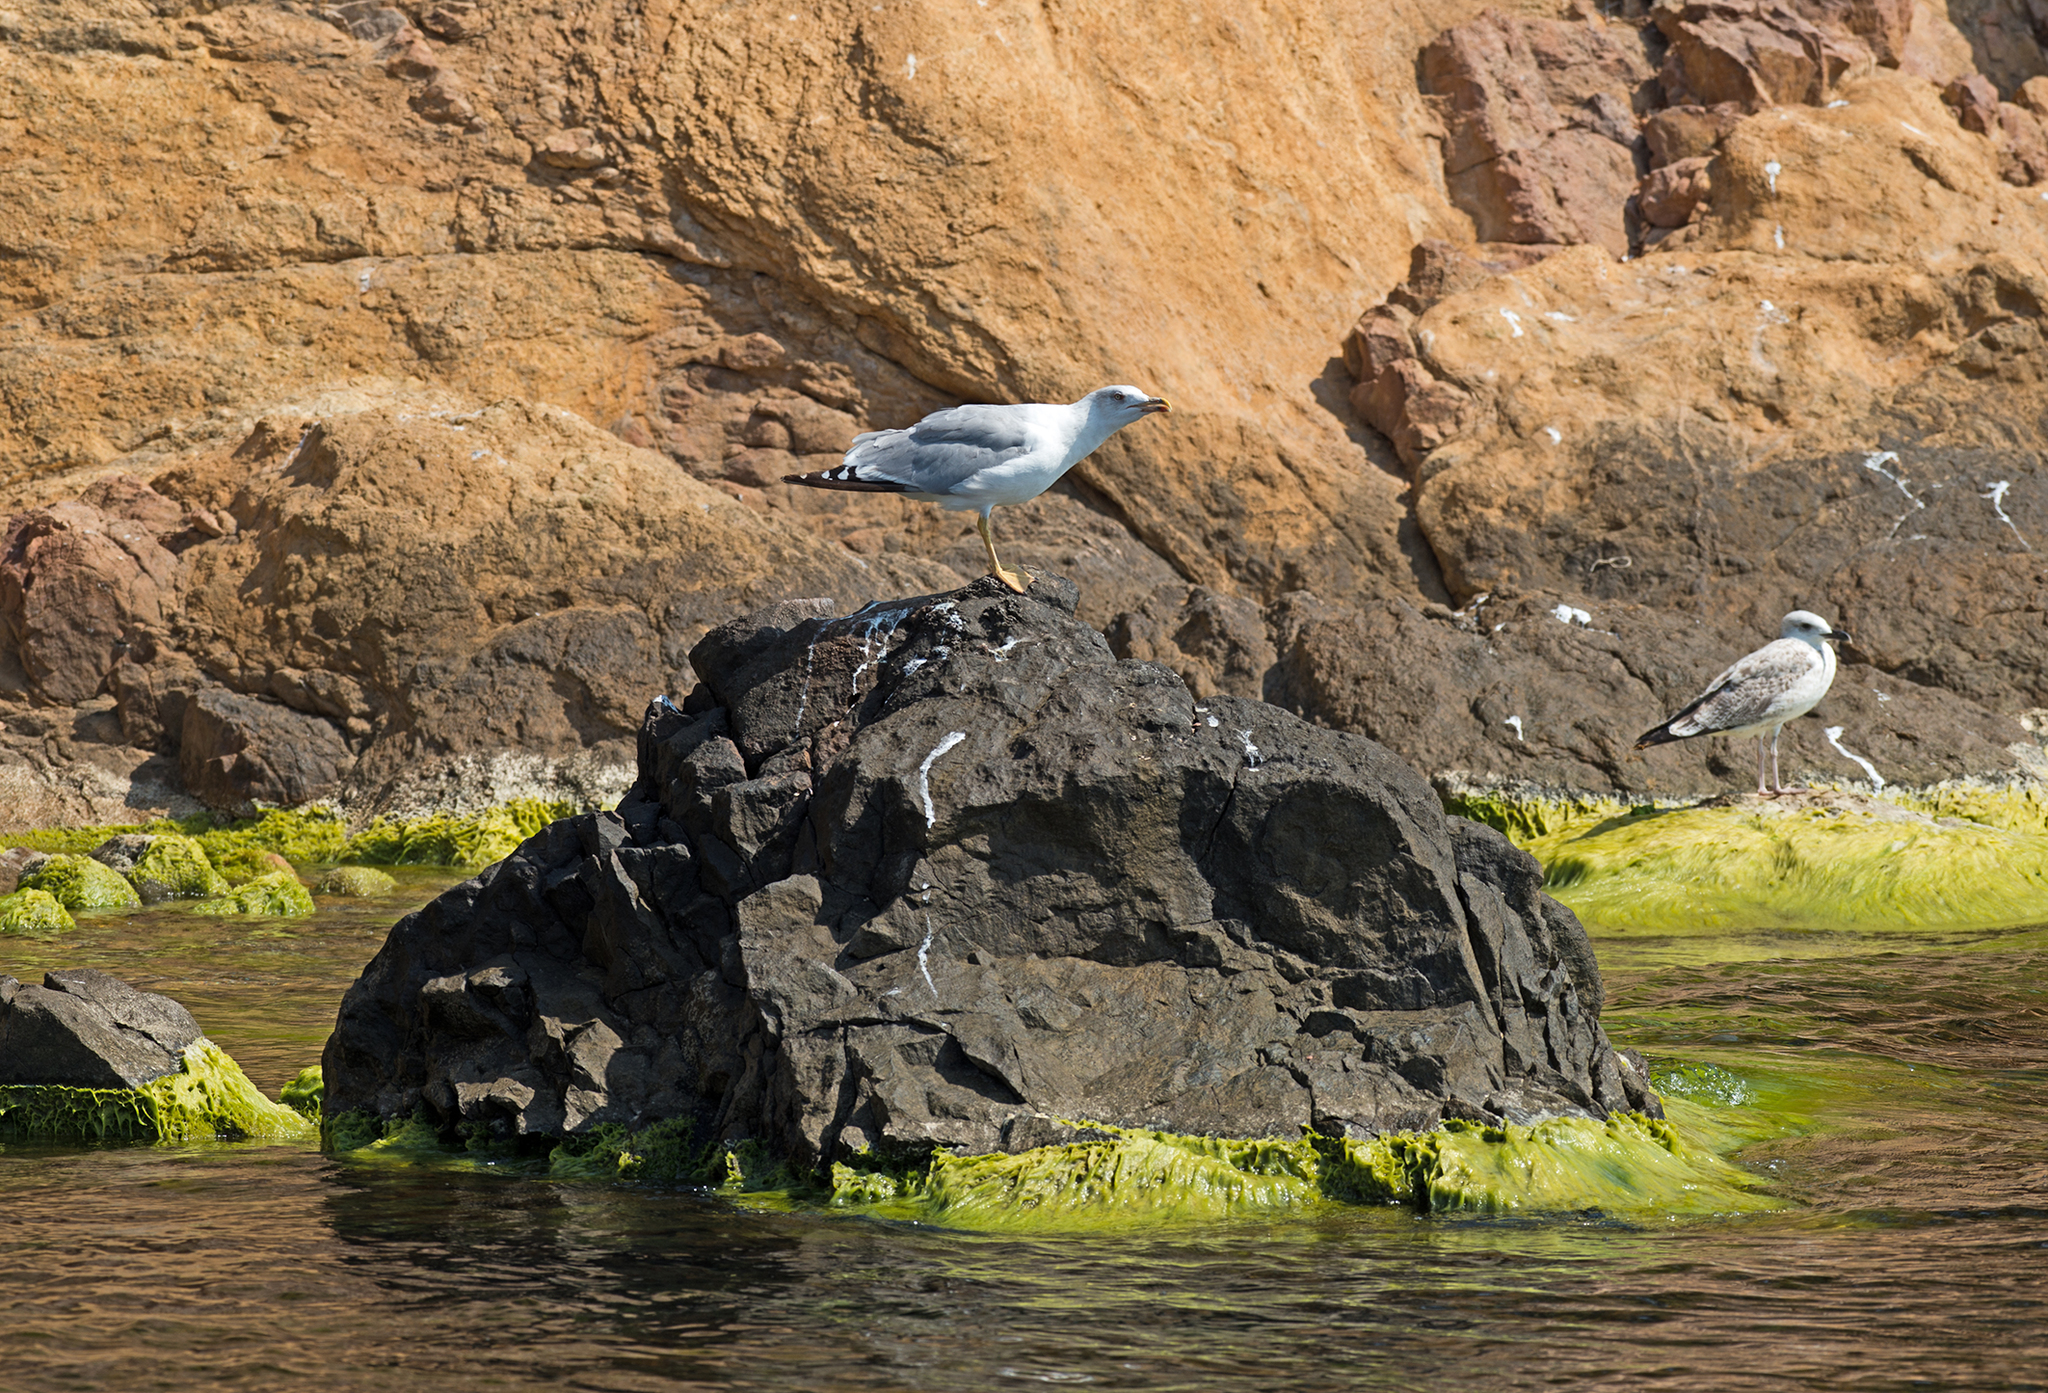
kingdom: Animalia
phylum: Chordata
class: Aves
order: Charadriiformes
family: Laridae
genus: Larus
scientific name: Larus michahellis
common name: Yellow-legged gull
